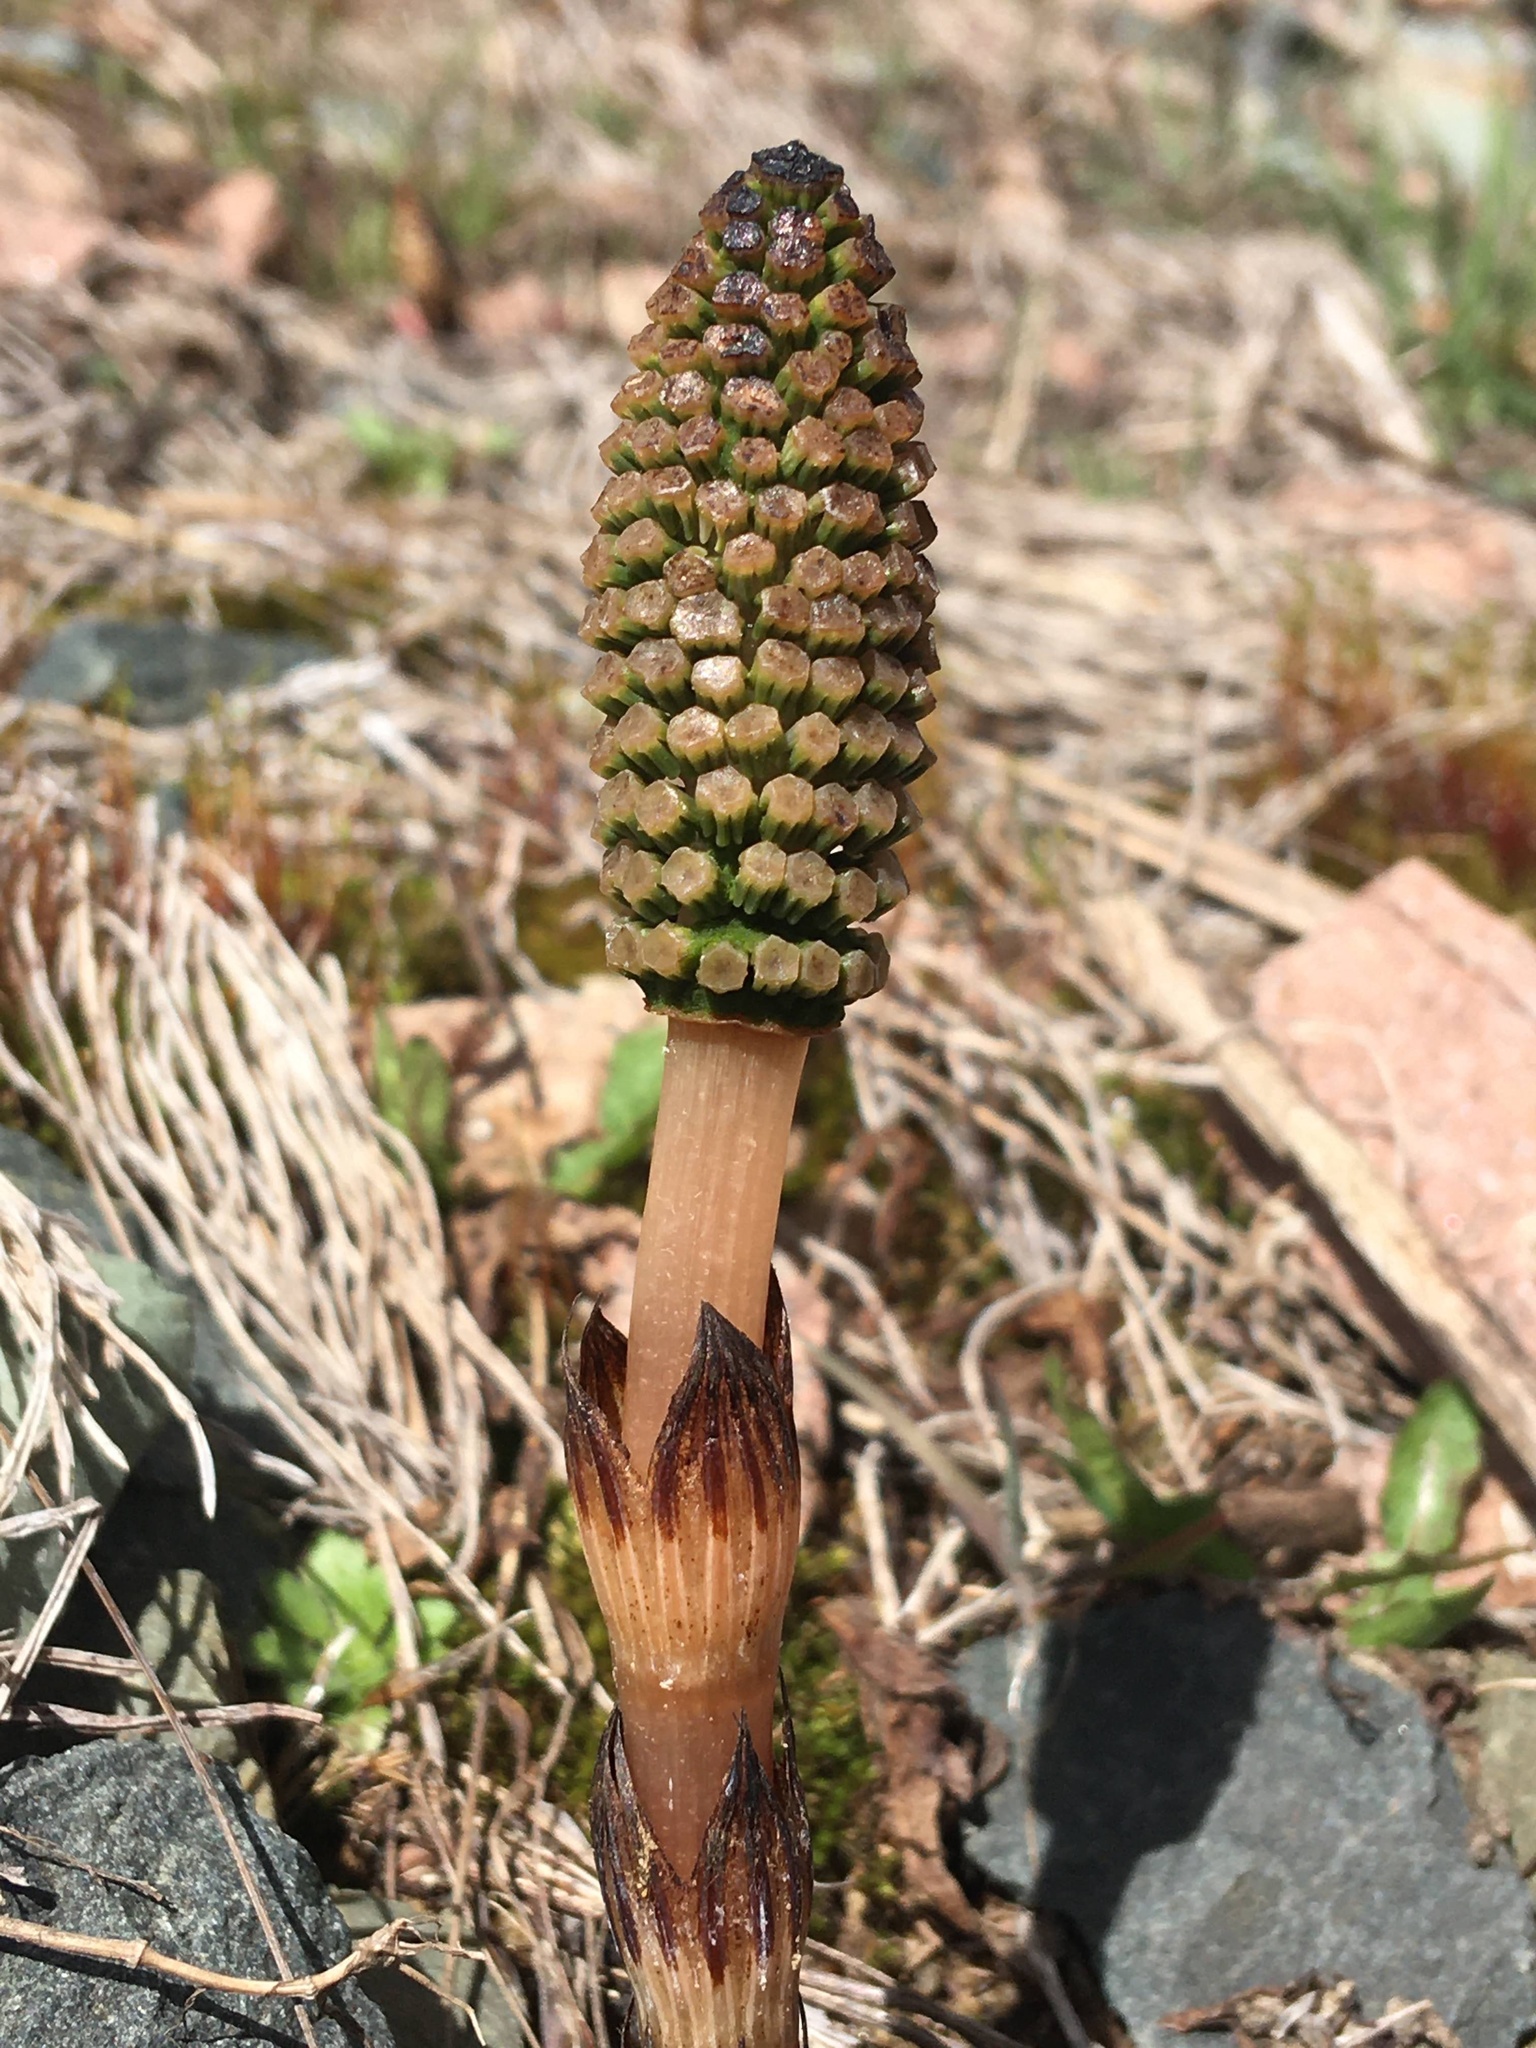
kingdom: Plantae
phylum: Tracheophyta
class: Polypodiopsida
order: Equisetales
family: Equisetaceae
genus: Equisetum
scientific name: Equisetum arvense
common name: Field horsetail
